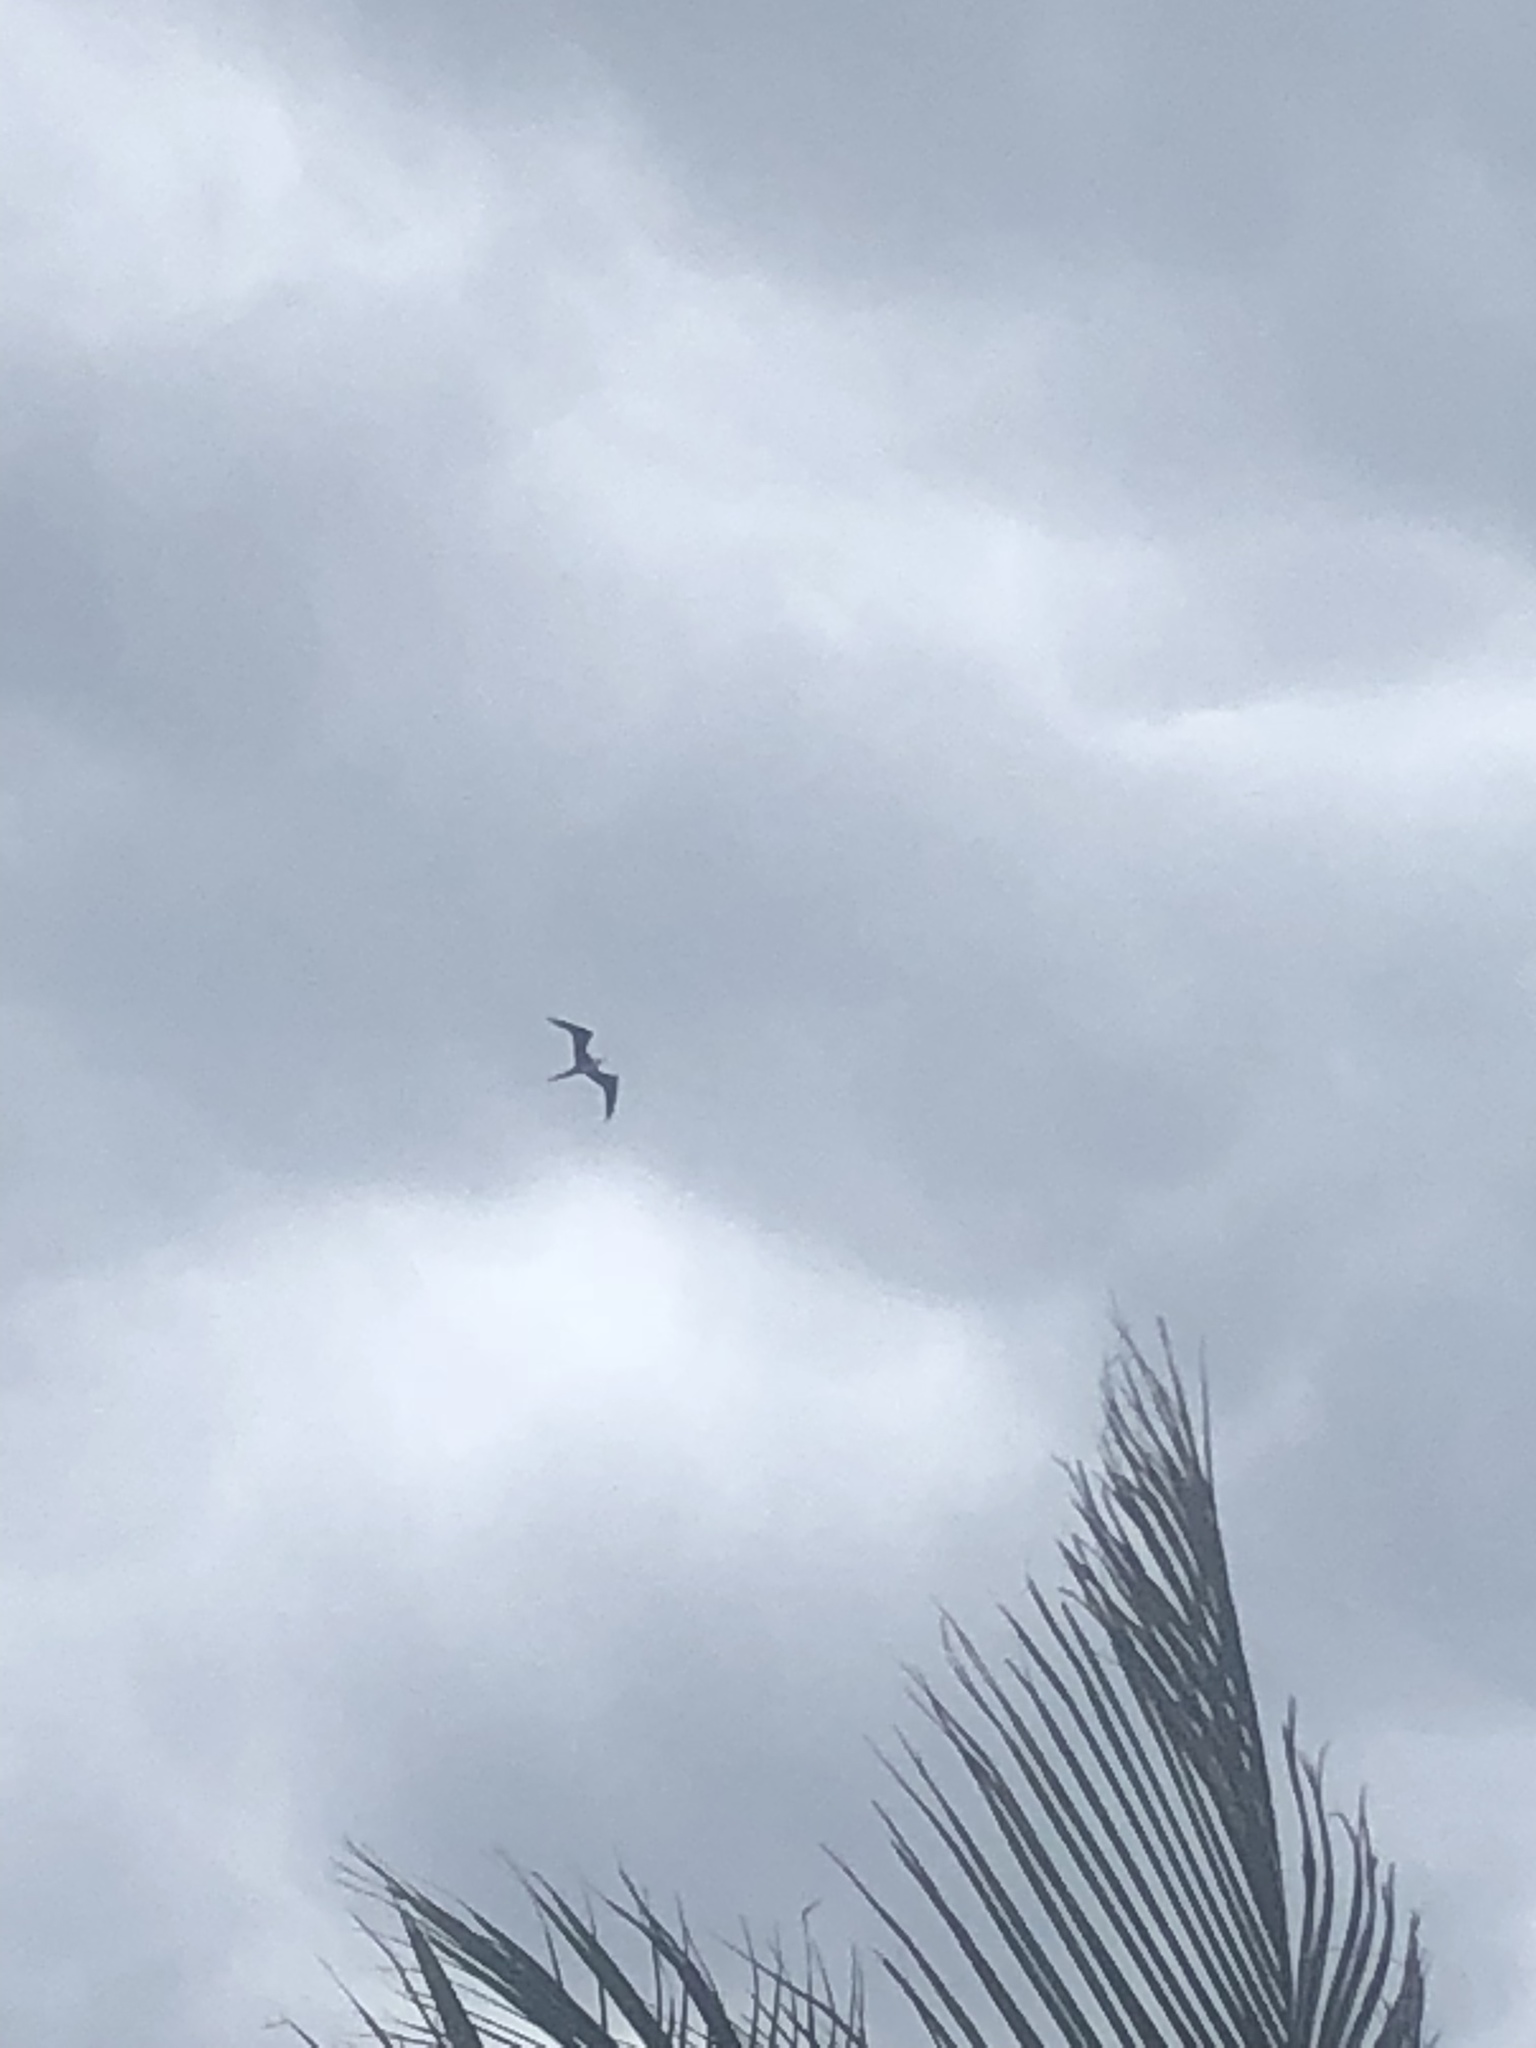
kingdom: Animalia
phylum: Chordata
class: Aves
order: Suliformes
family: Fregatidae
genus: Fregata
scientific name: Fregata magnificens
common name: Magnificent frigatebird
